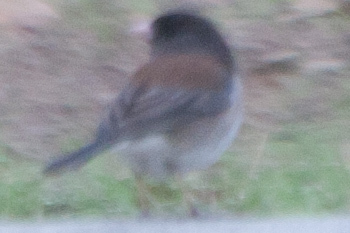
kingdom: Animalia
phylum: Chordata
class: Aves
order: Passeriformes
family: Passerellidae
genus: Junco
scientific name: Junco hyemalis
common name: Dark-eyed junco
